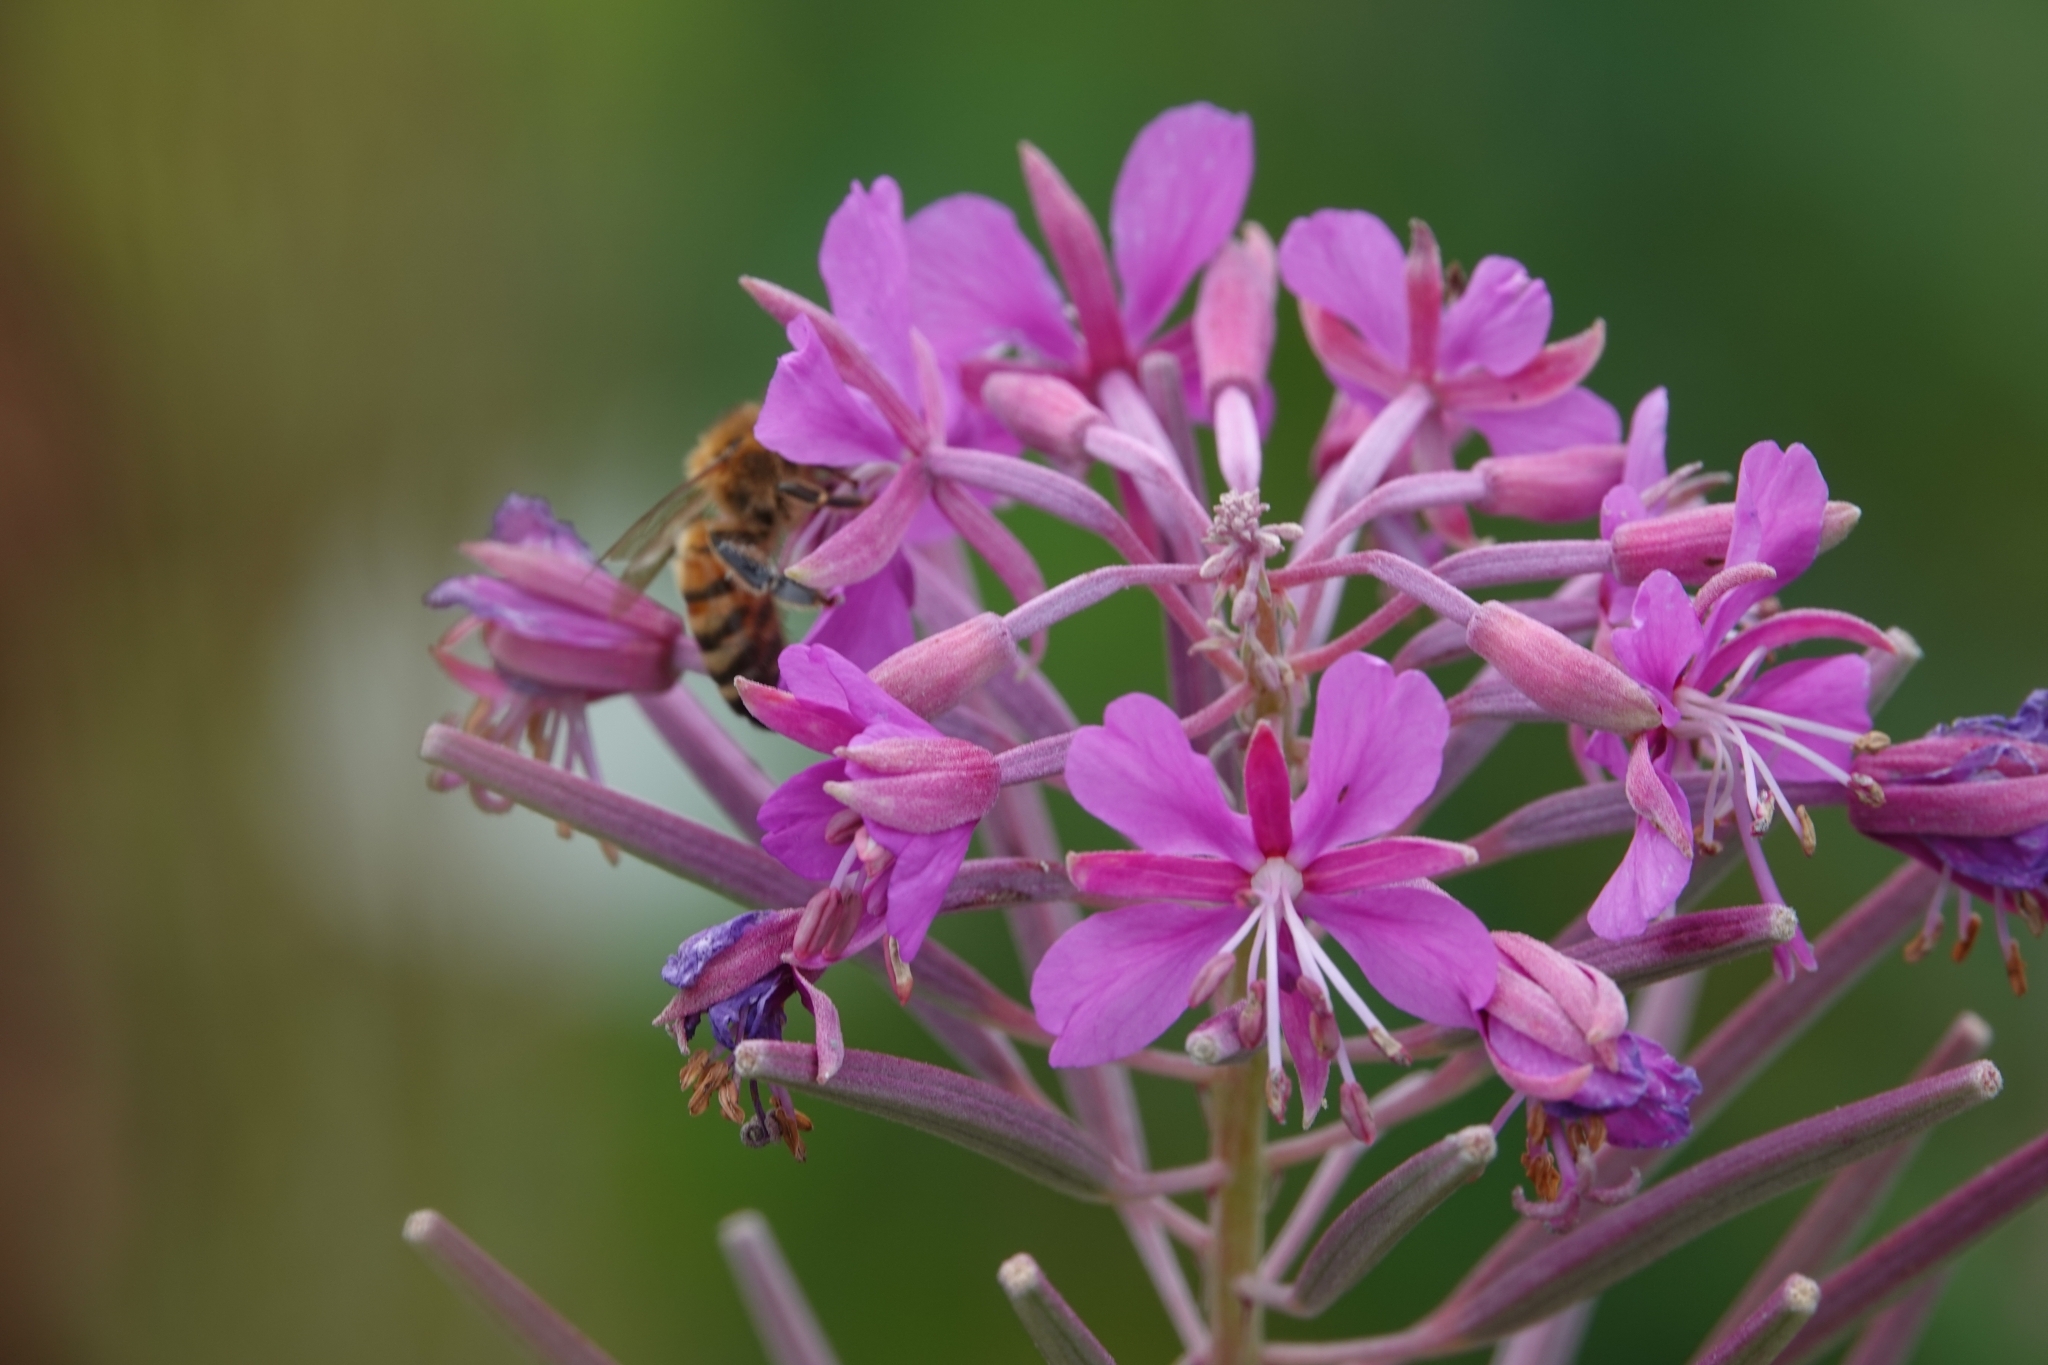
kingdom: Plantae
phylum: Tracheophyta
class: Magnoliopsida
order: Myrtales
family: Onagraceae
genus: Chamaenerion
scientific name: Chamaenerion angustifolium
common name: Fireweed
